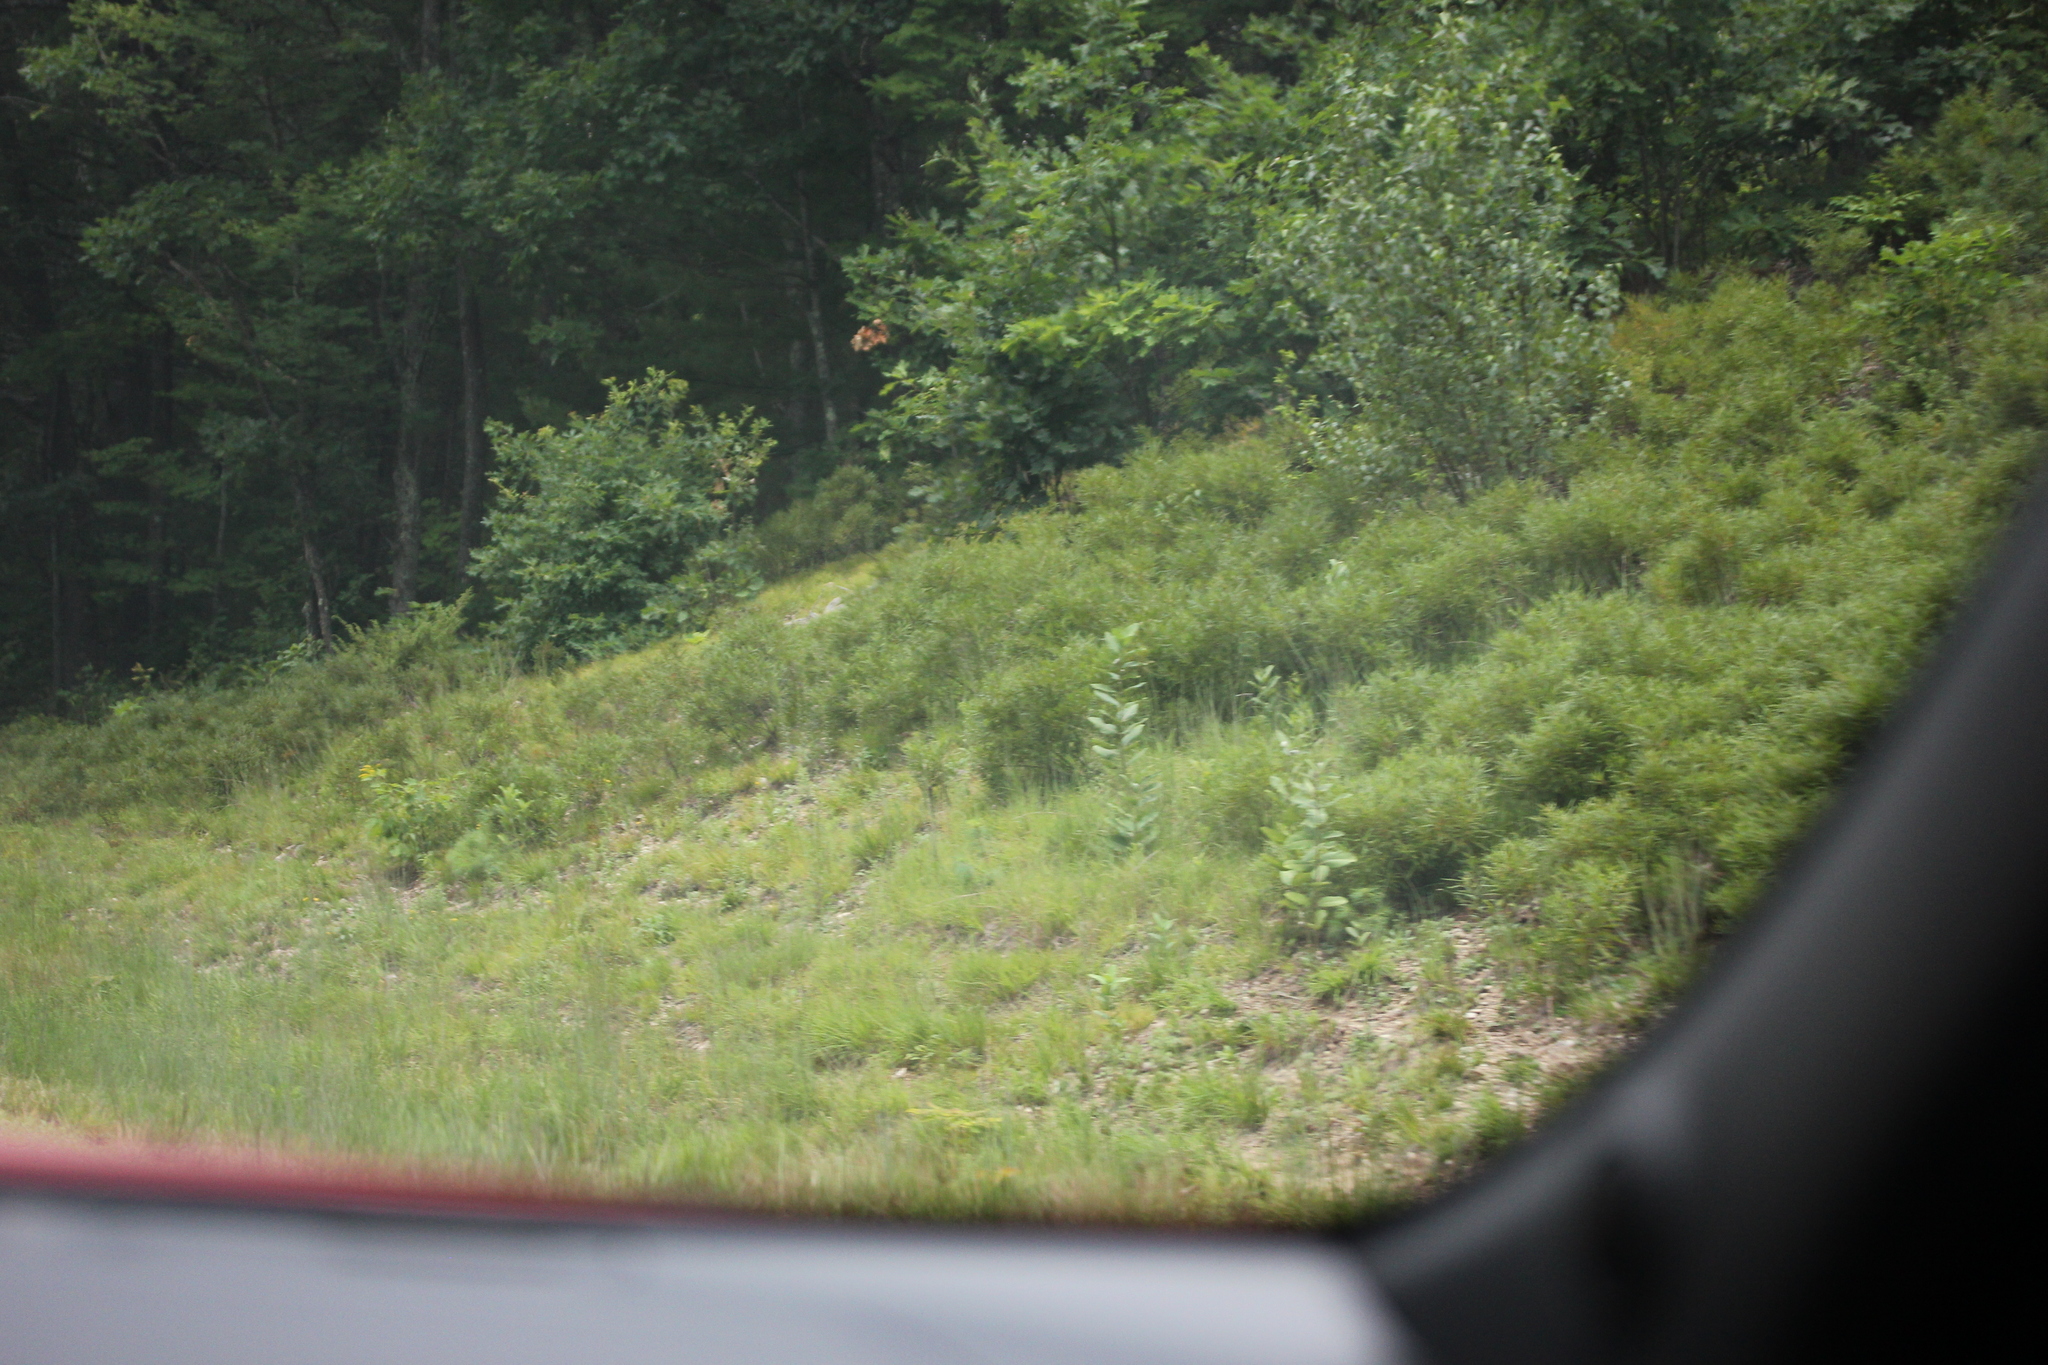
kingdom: Plantae
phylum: Tracheophyta
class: Magnoliopsida
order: Gentianales
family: Apocynaceae
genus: Asclepias
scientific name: Asclepias syriaca
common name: Common milkweed
